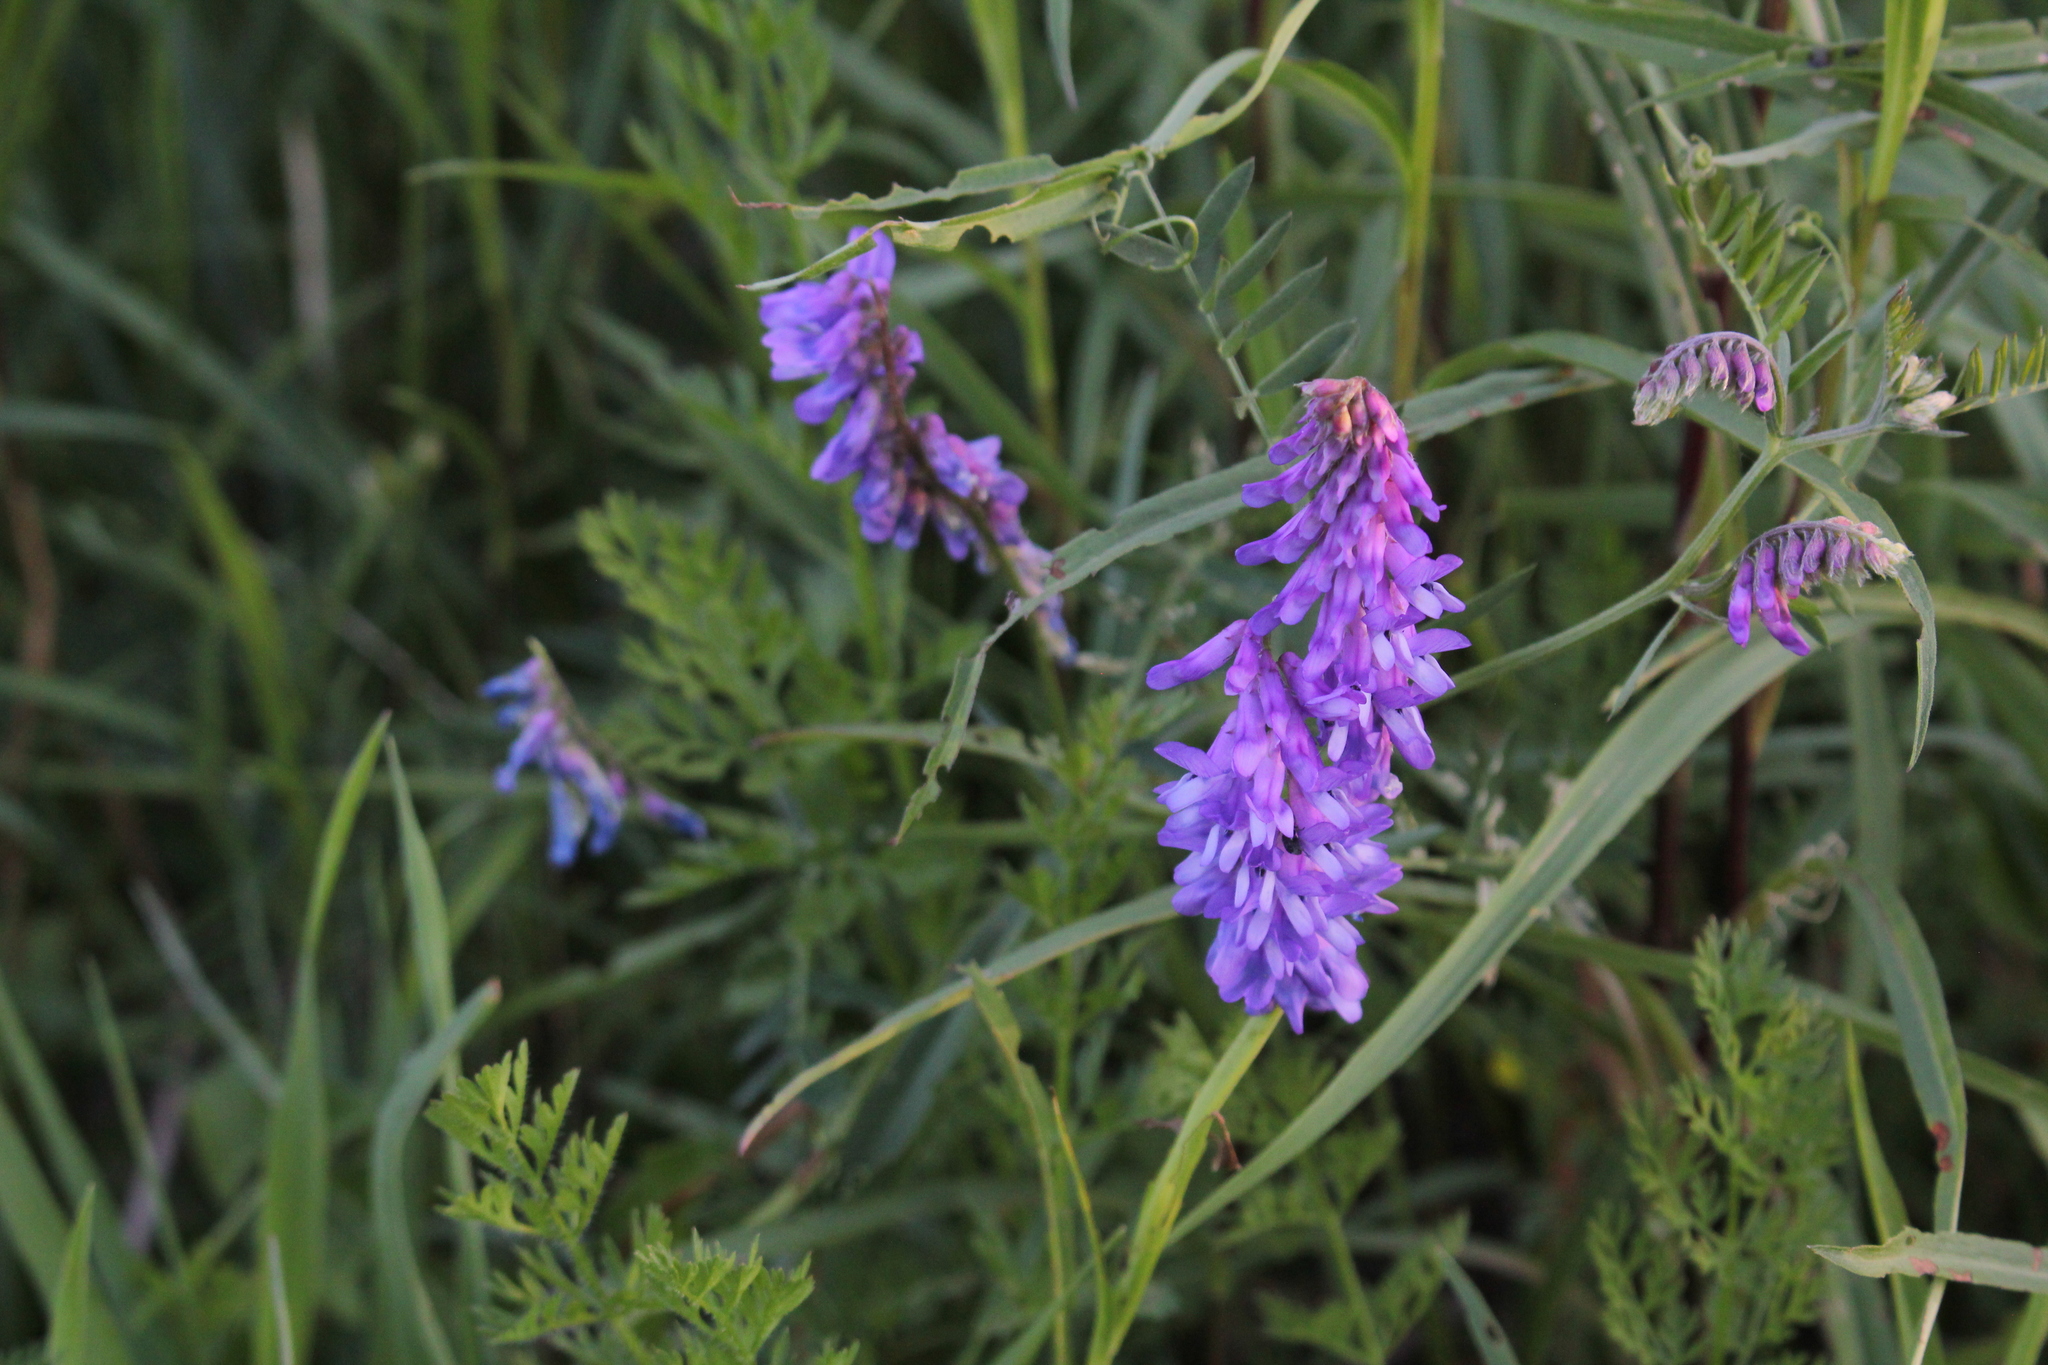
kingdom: Plantae
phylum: Tracheophyta
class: Magnoliopsida
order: Fabales
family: Fabaceae
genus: Vicia
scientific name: Vicia cracca
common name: Bird vetch
